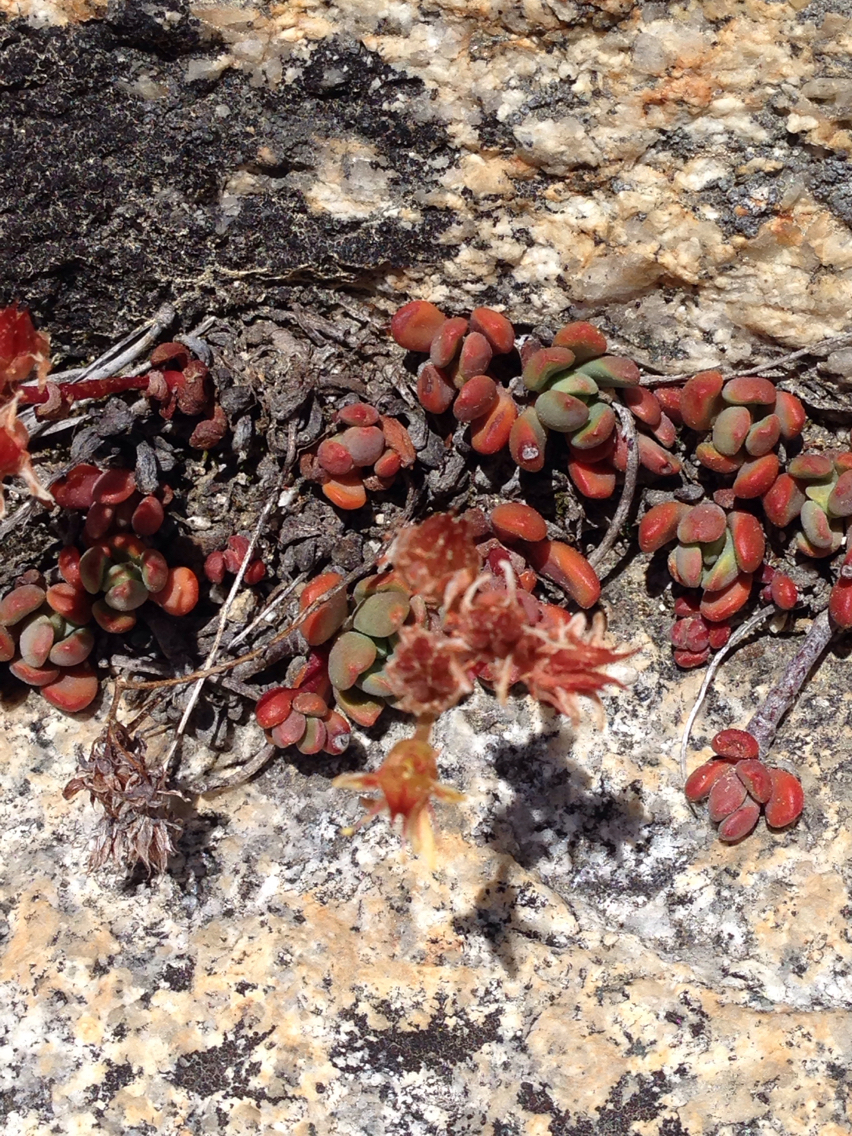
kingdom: Plantae
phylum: Tracheophyta
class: Magnoliopsida
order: Saxifragales
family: Crassulaceae
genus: Sedum
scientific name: Sedum obtusatum
